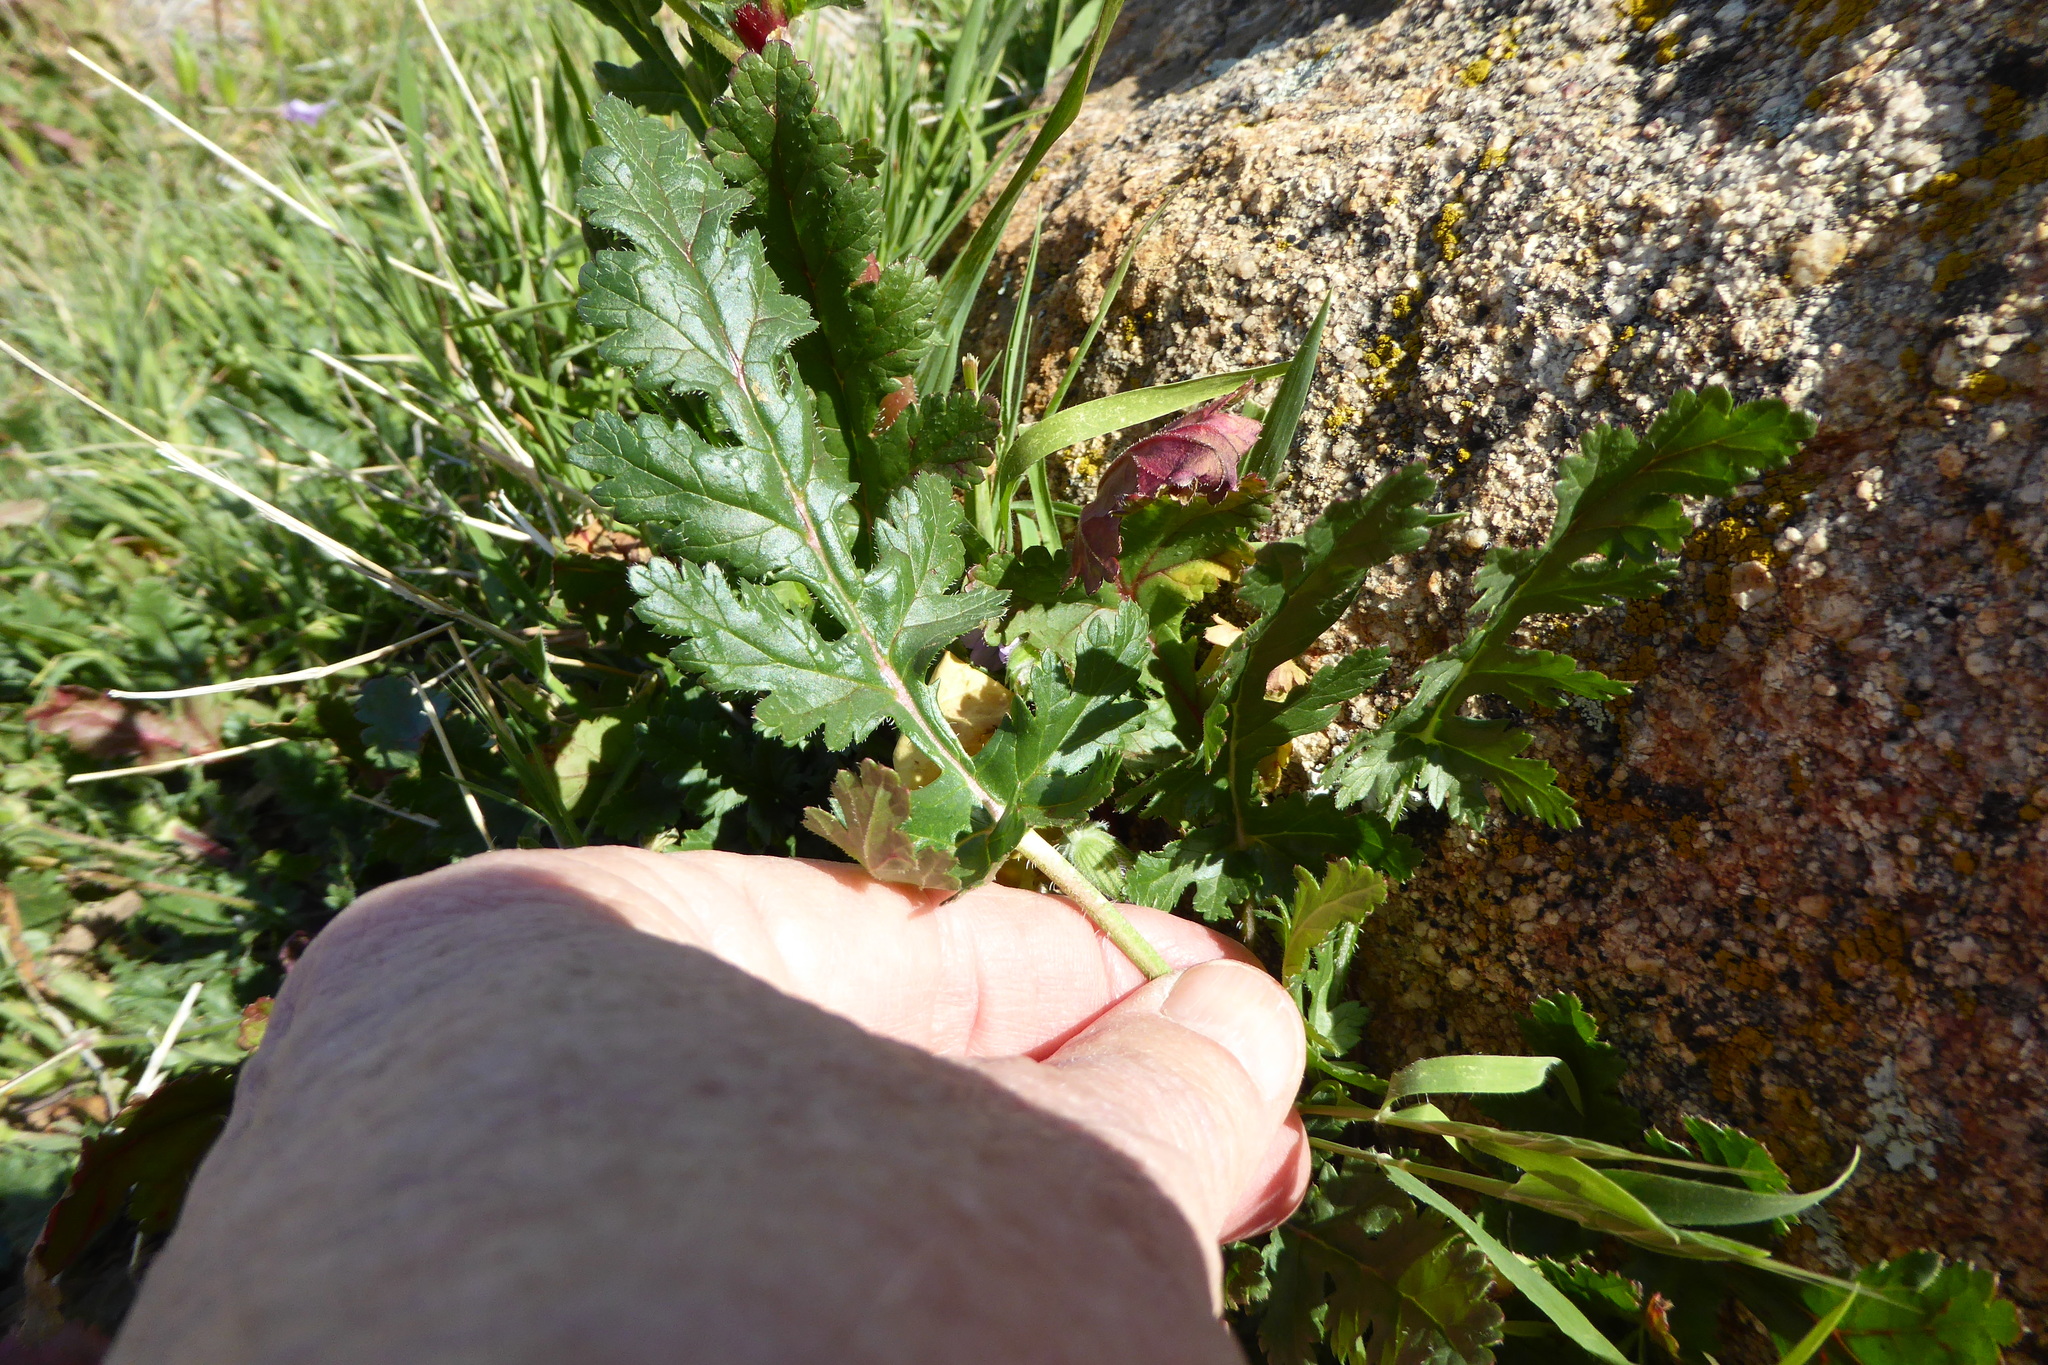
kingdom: Plantae
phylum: Tracheophyta
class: Magnoliopsida
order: Geraniales
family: Geraniaceae
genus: Erodium
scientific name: Erodium botrys
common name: Mediterranean stork's-bill
